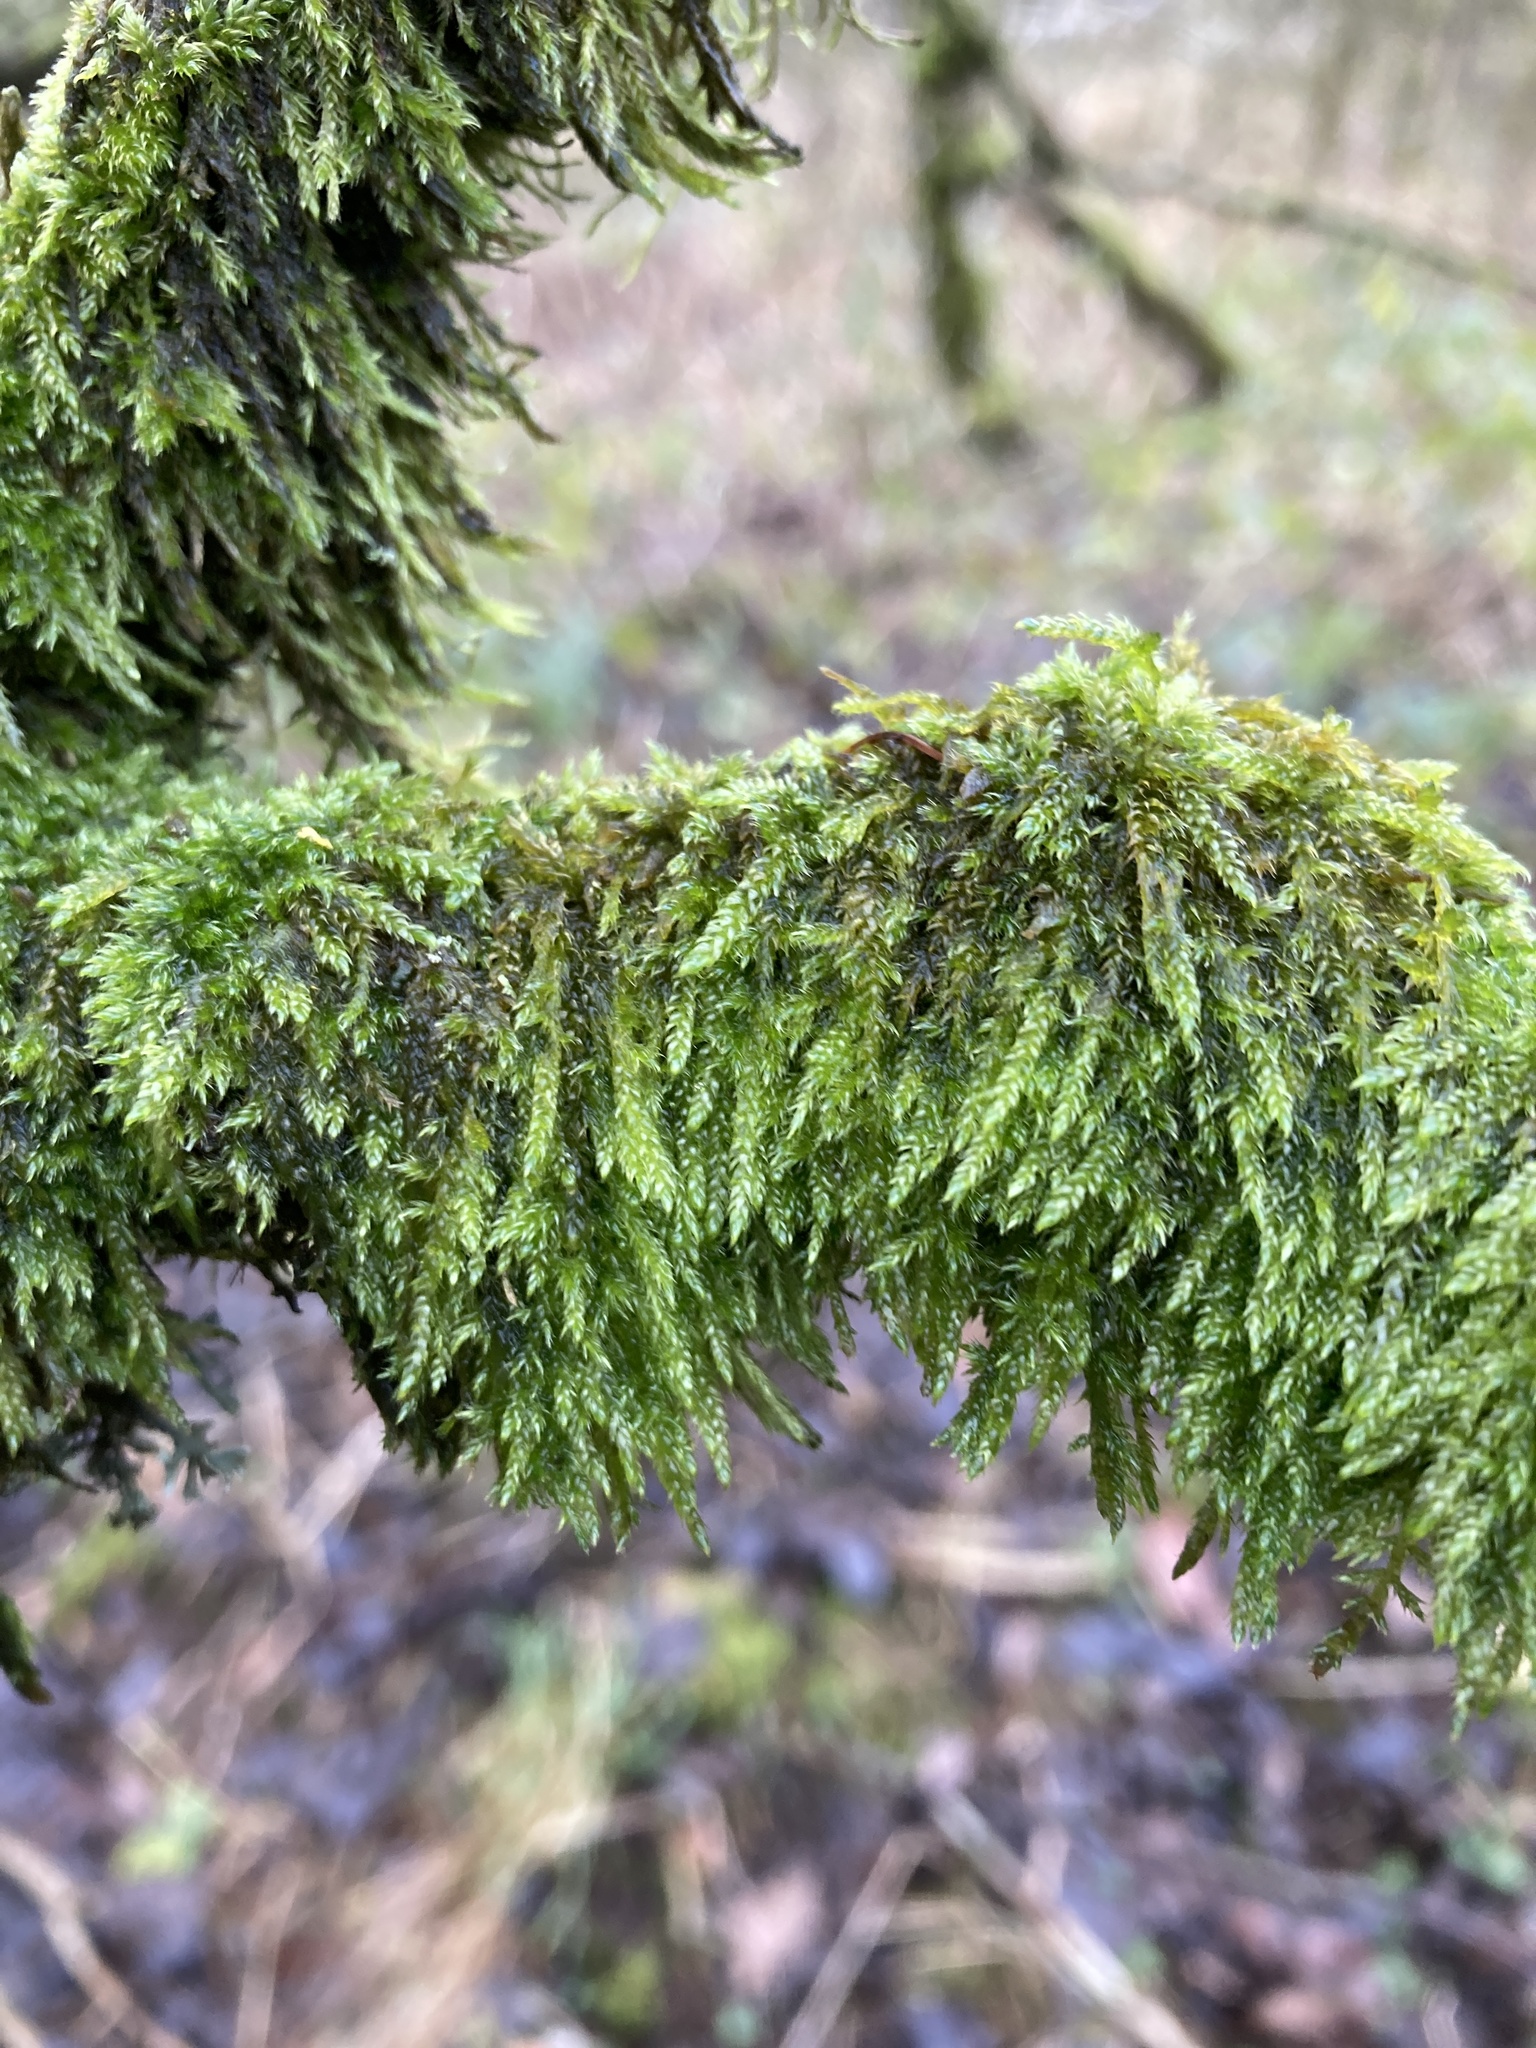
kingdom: Plantae
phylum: Bryophyta
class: Bryopsida
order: Hypnales
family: Hypnaceae
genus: Hypnum
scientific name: Hypnum cupressiforme
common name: Cypress-leaved plait-moss
